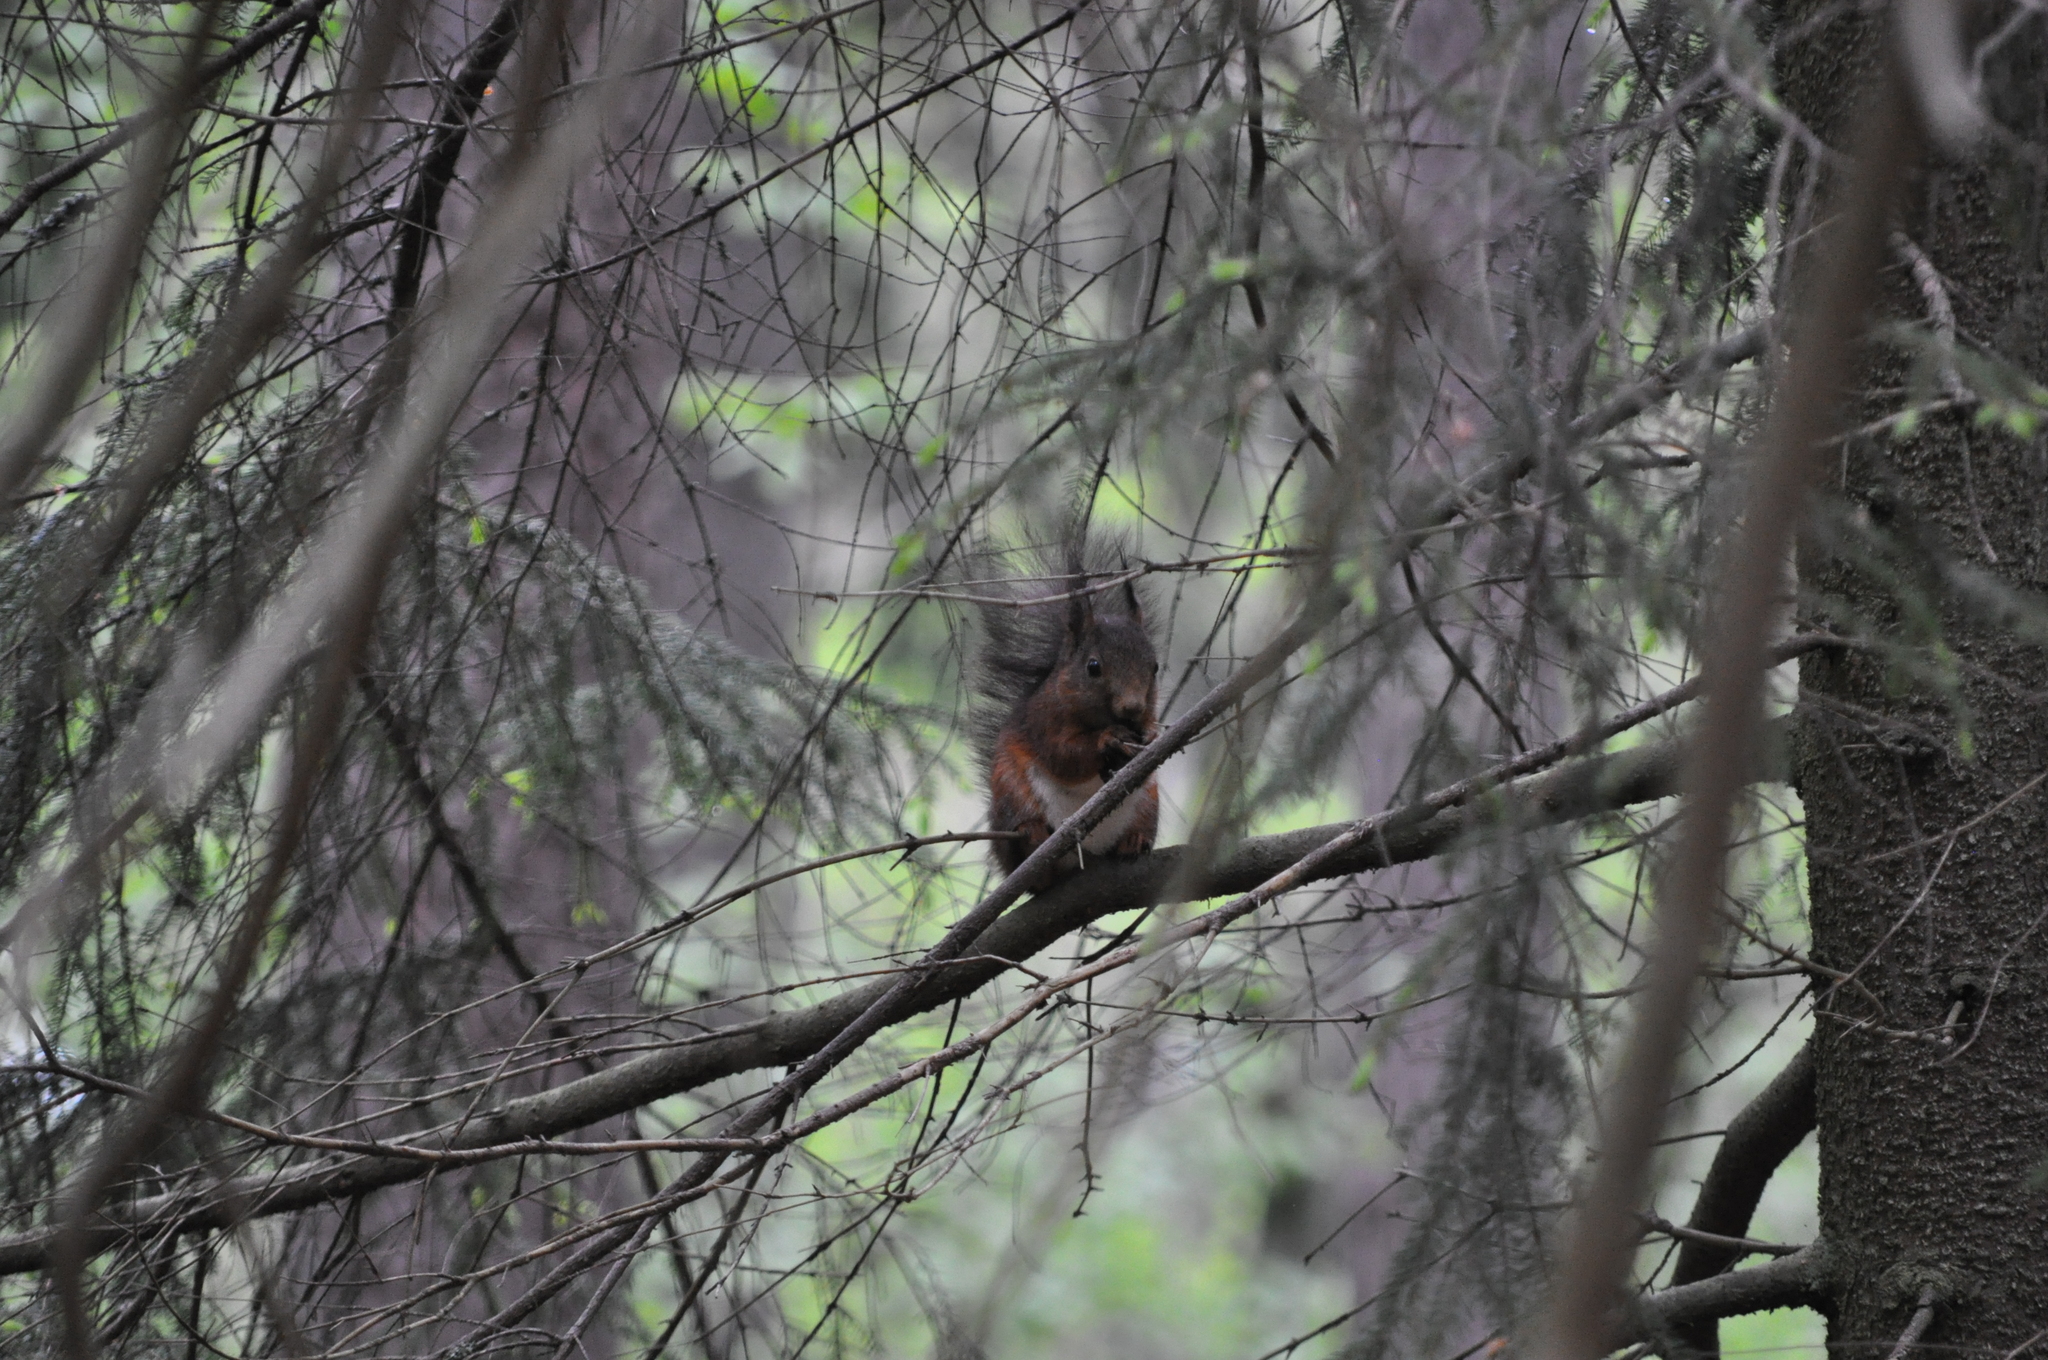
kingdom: Animalia
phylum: Chordata
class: Mammalia
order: Rodentia
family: Sciuridae
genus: Sciurus
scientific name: Sciurus vulgaris
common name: Eurasian red squirrel
